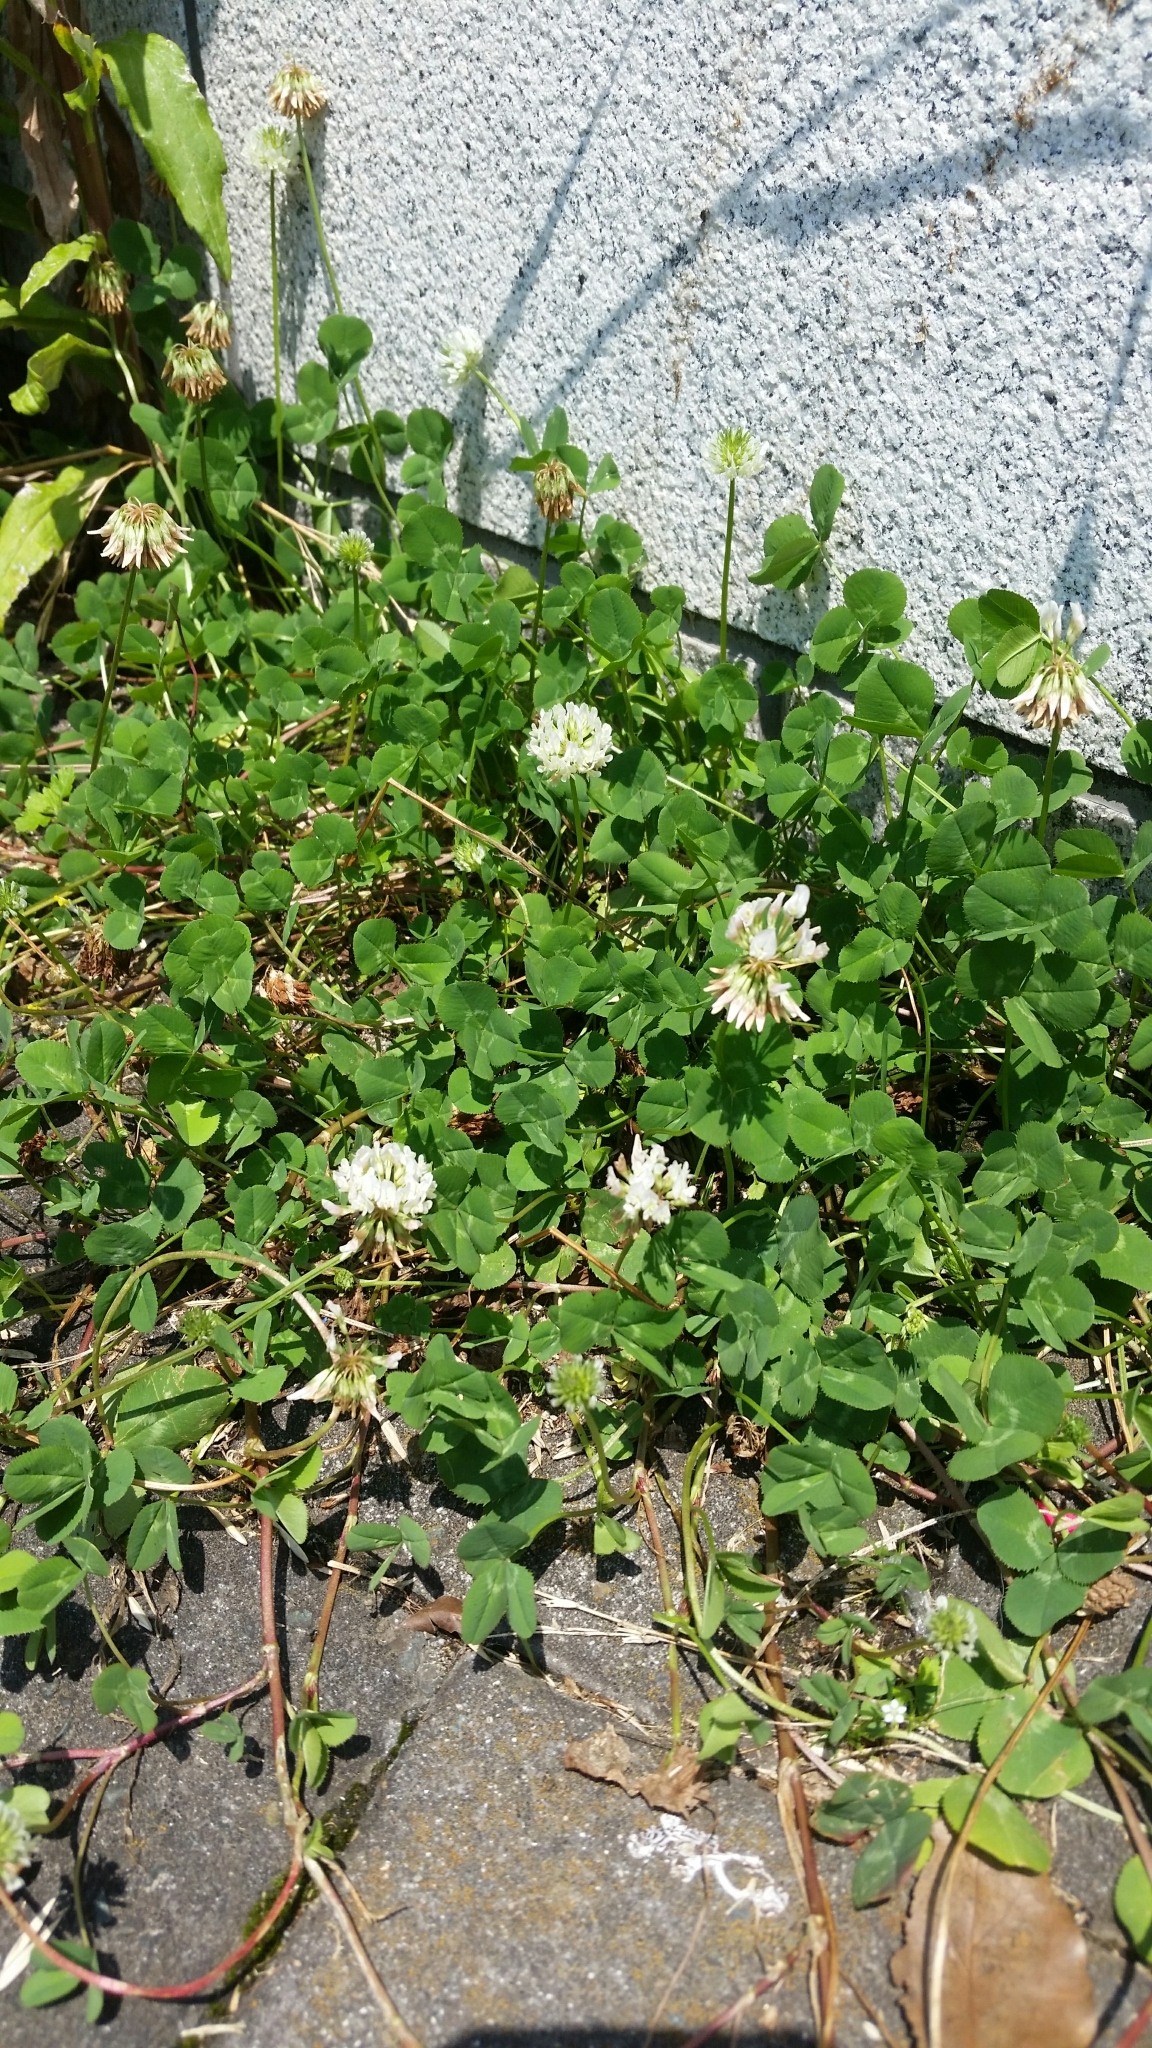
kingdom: Plantae
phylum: Tracheophyta
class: Magnoliopsida
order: Fabales
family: Fabaceae
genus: Trifolium
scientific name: Trifolium repens
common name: White clover
